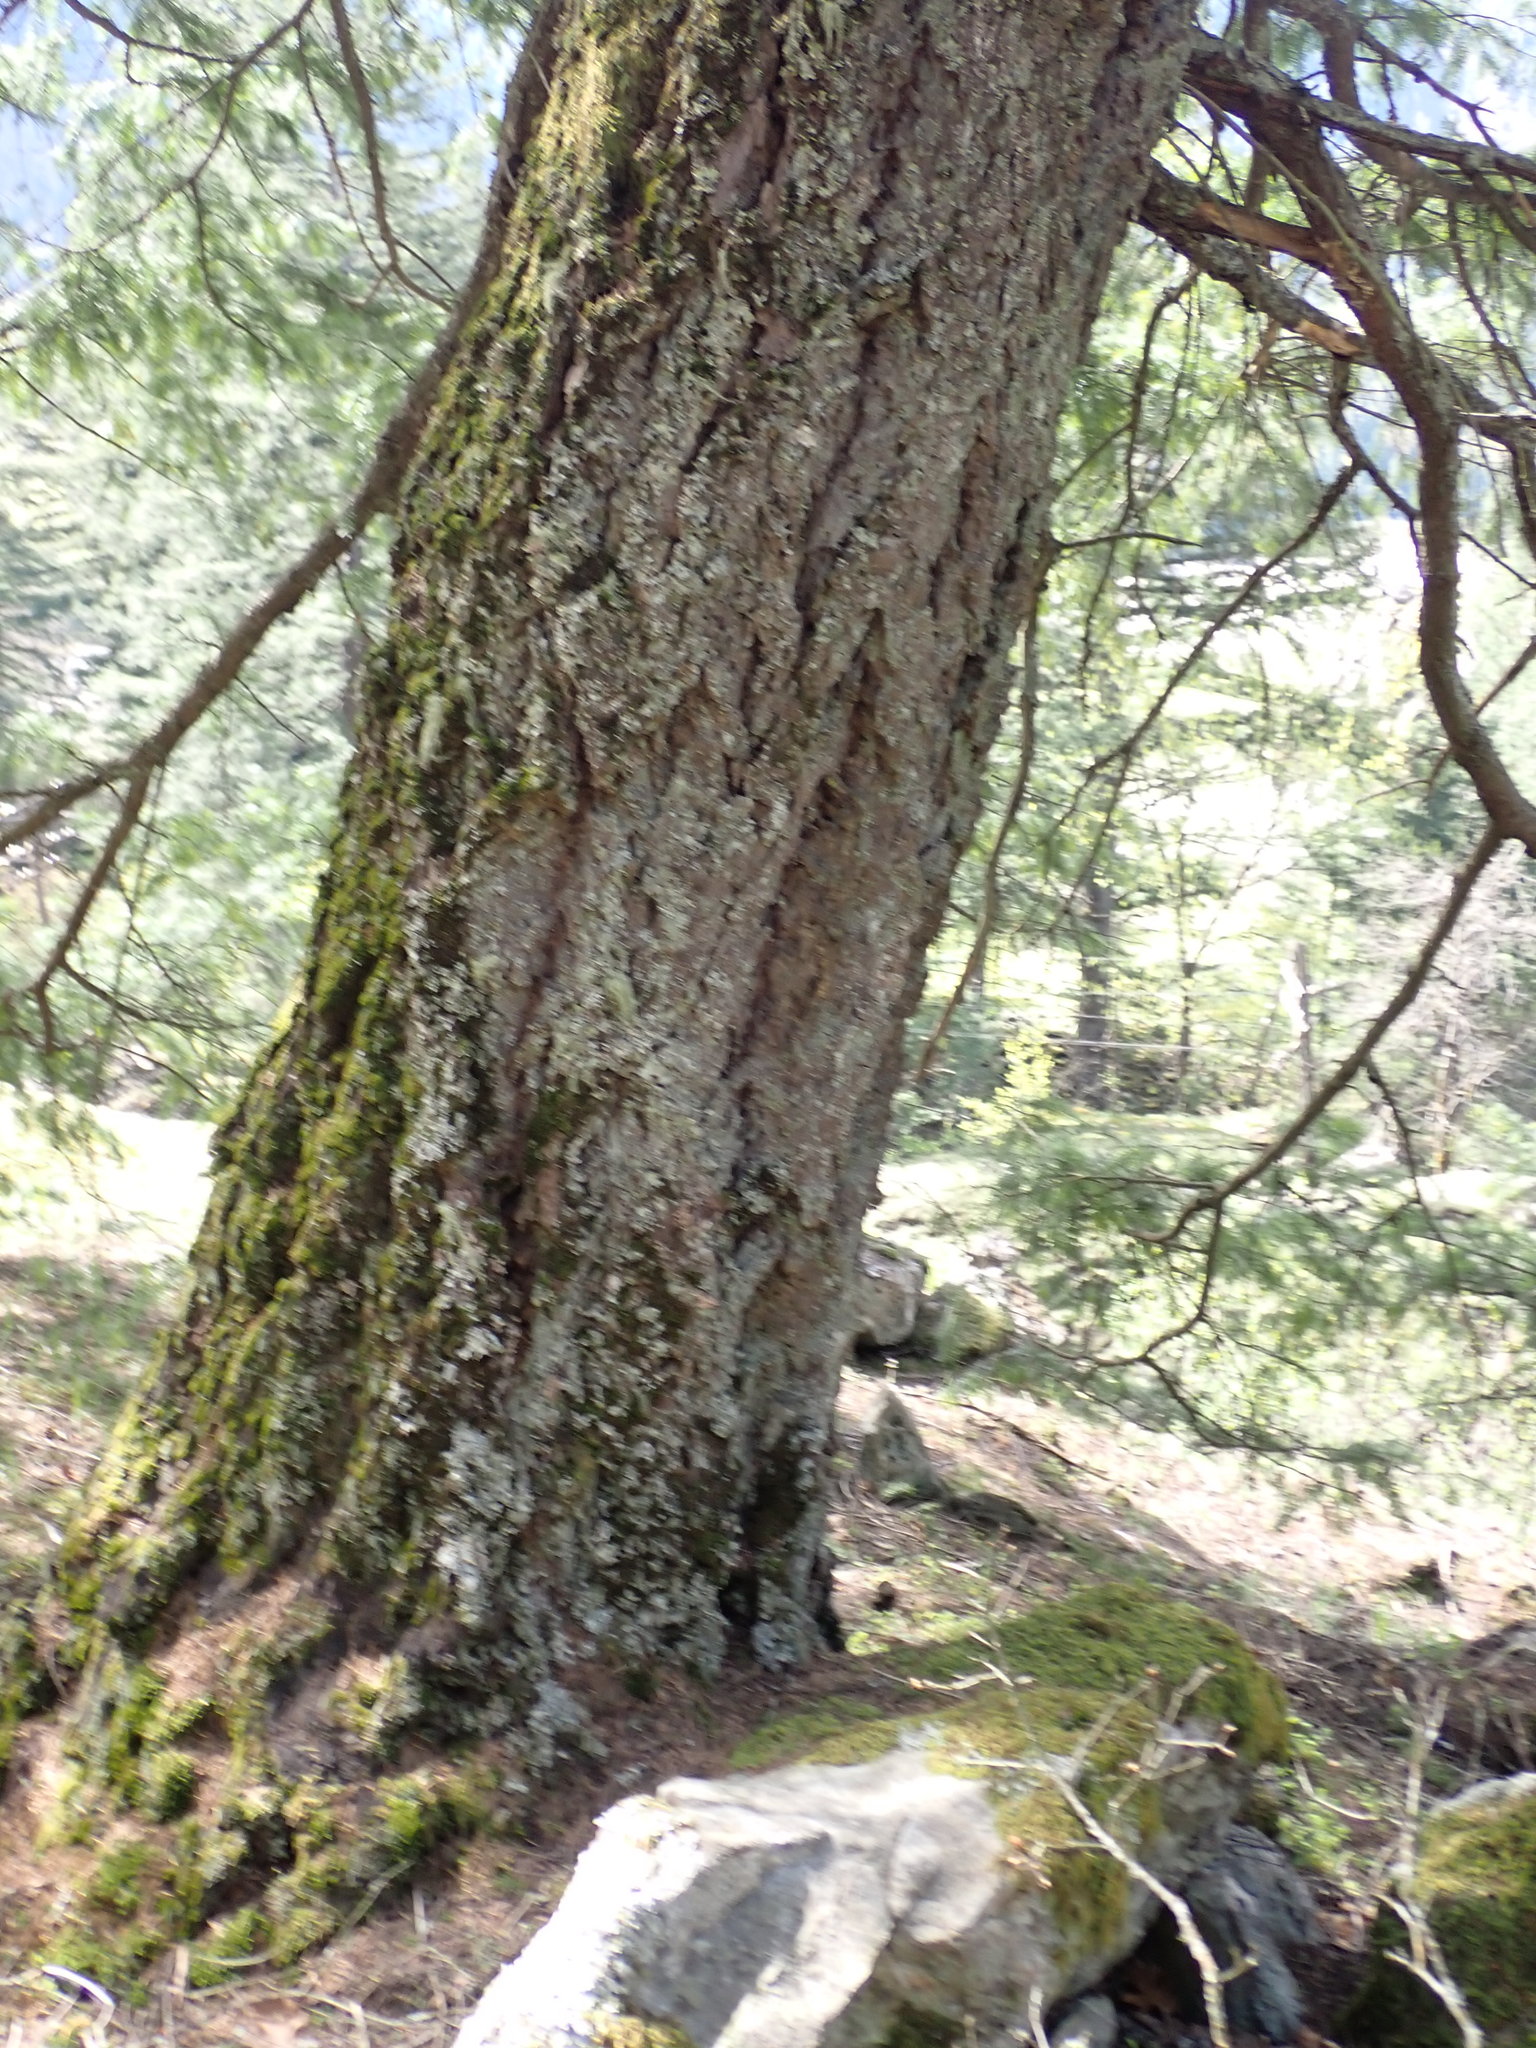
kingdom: Plantae
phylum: Tracheophyta
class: Pinopsida
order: Pinales
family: Pinaceae
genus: Pseudotsuga
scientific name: Pseudotsuga menziesii
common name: Douglas fir
